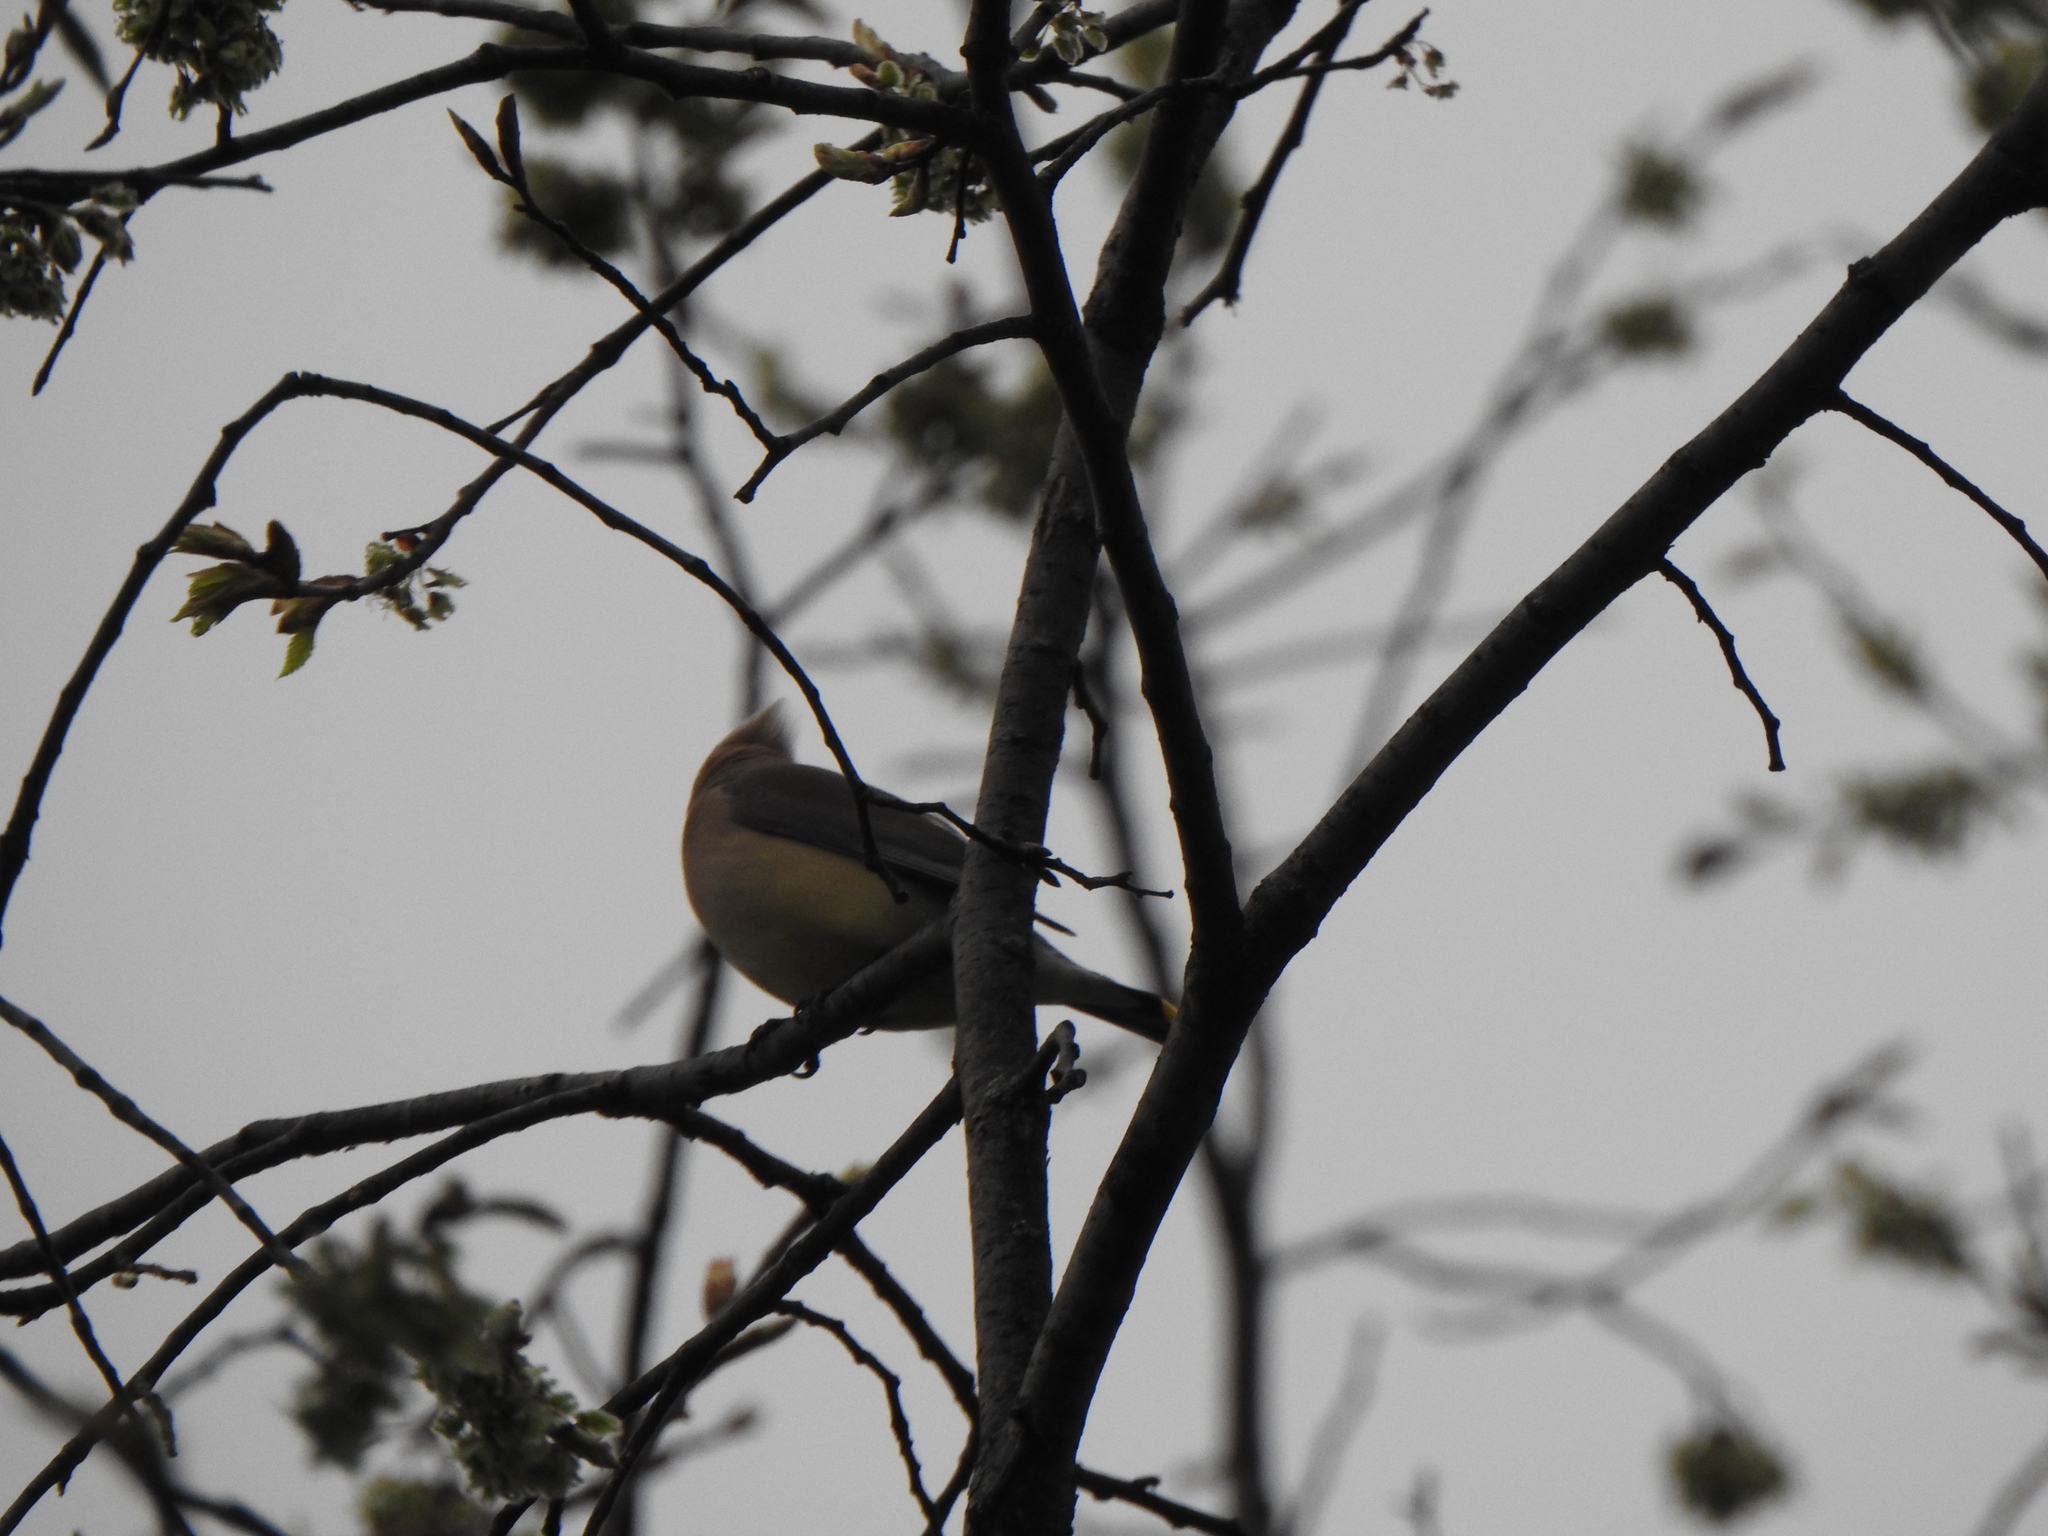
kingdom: Animalia
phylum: Chordata
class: Aves
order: Passeriformes
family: Bombycillidae
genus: Bombycilla
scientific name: Bombycilla cedrorum
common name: Cedar waxwing
